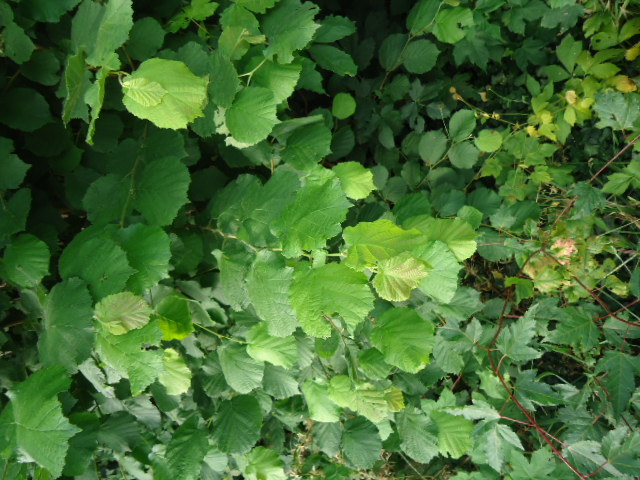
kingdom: Plantae
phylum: Tracheophyta
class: Magnoliopsida
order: Fagales
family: Betulaceae
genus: Corylus
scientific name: Corylus avellana
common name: European hazel
